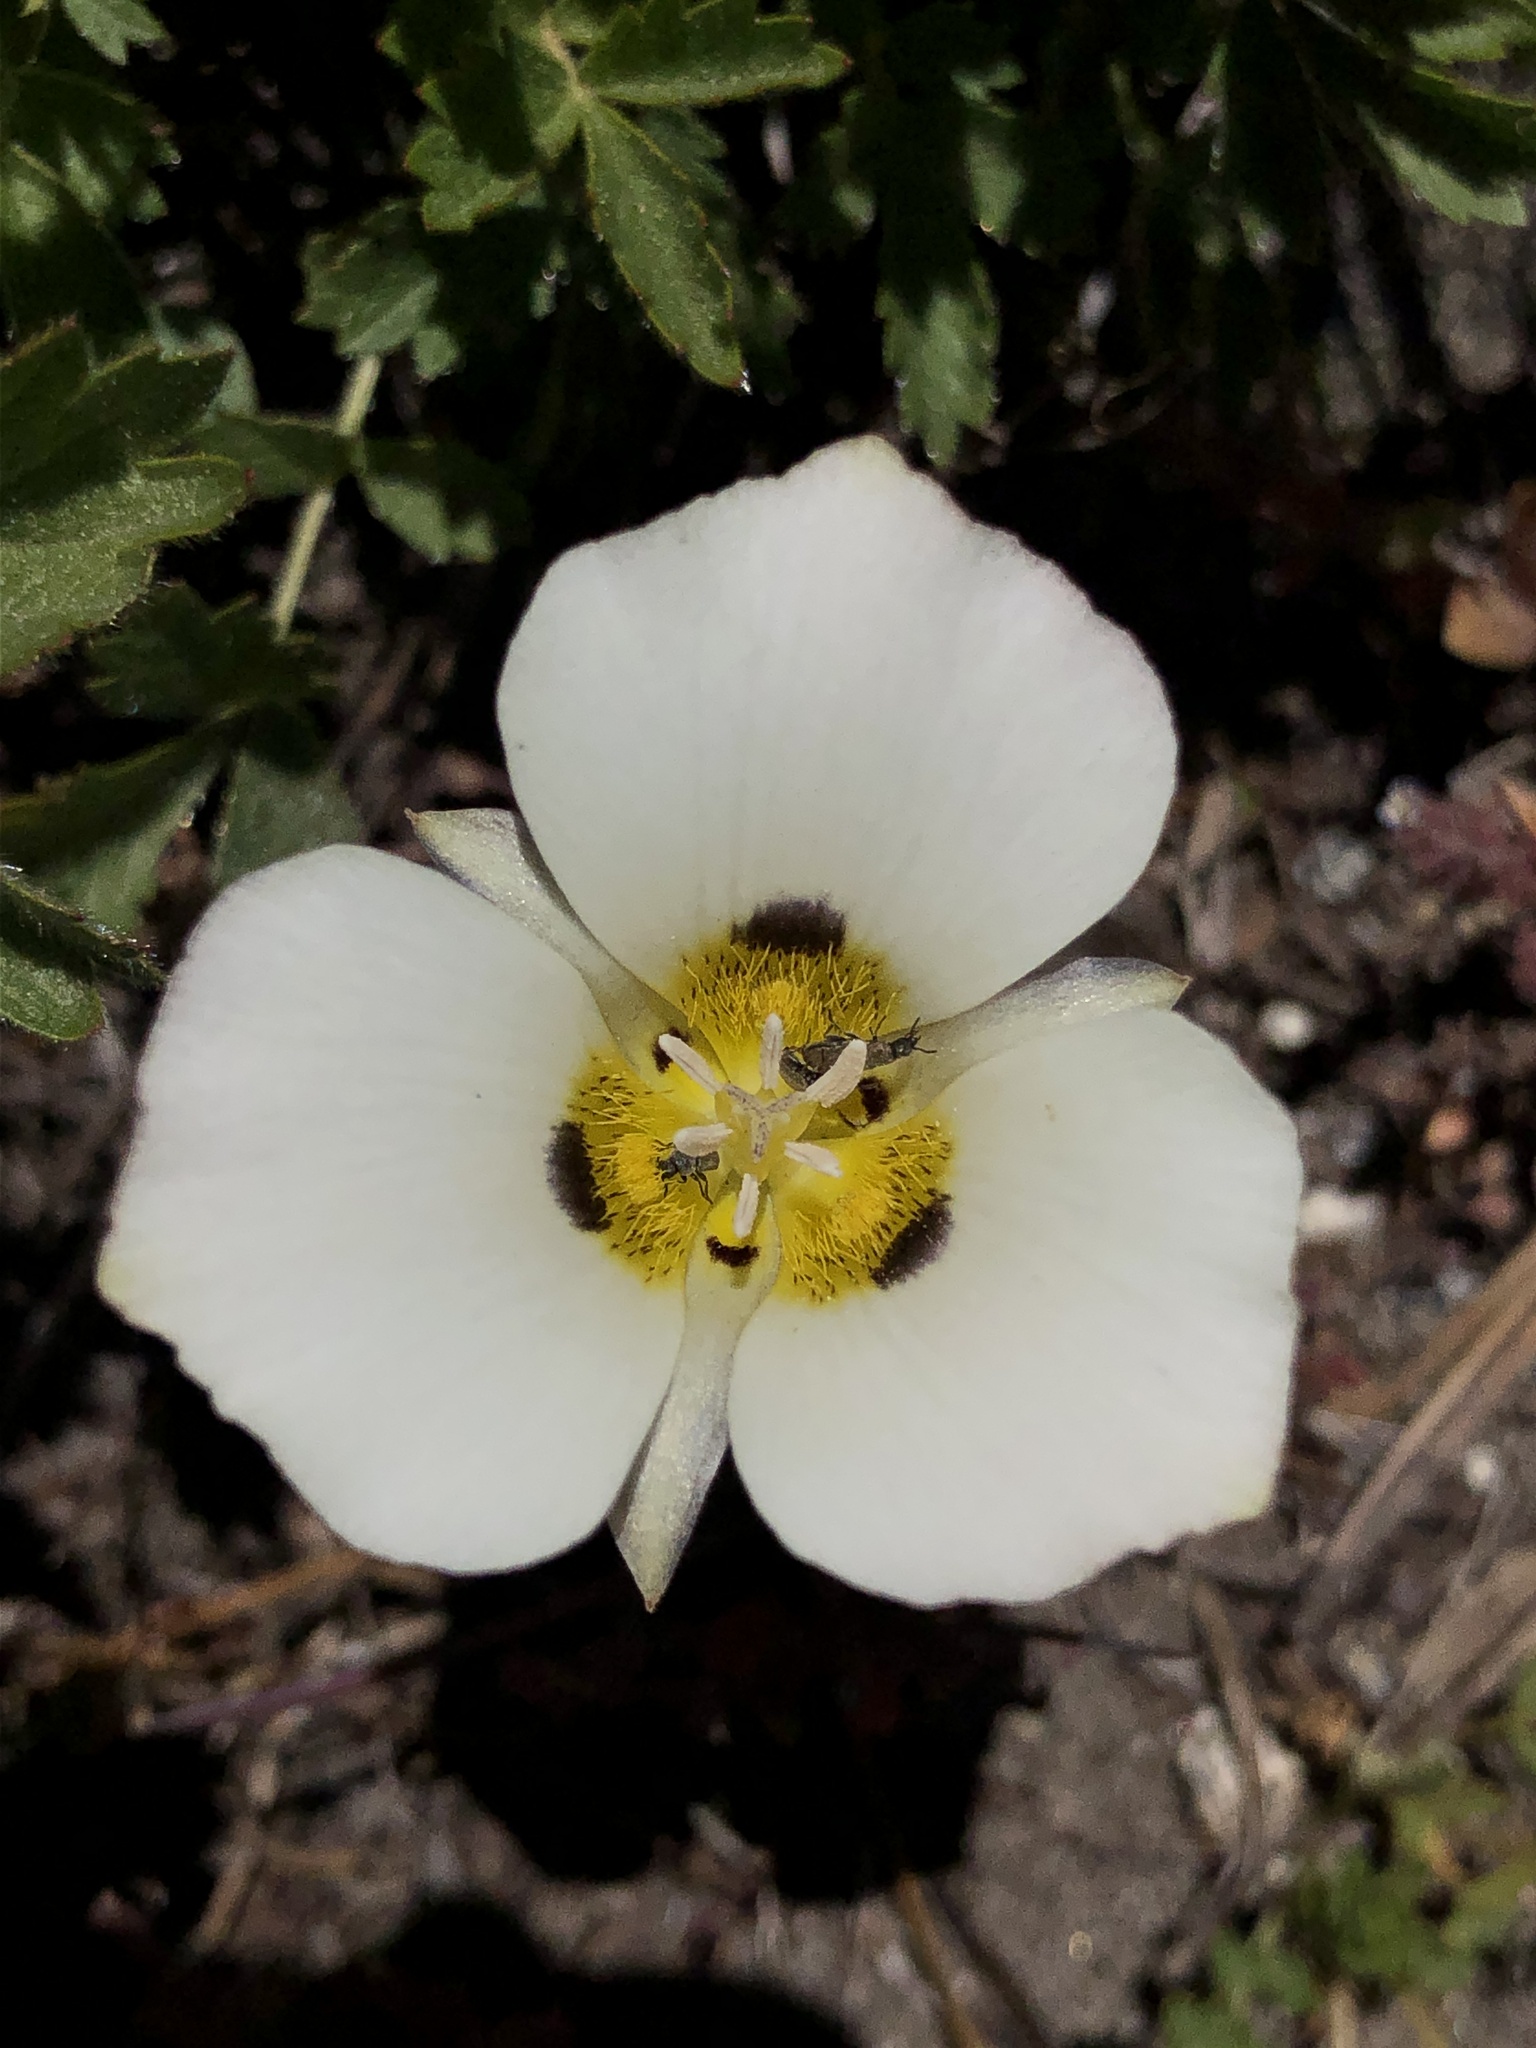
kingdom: Plantae
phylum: Tracheophyta
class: Liliopsida
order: Liliales
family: Liliaceae
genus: Calochortus
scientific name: Calochortus leichtlinii
